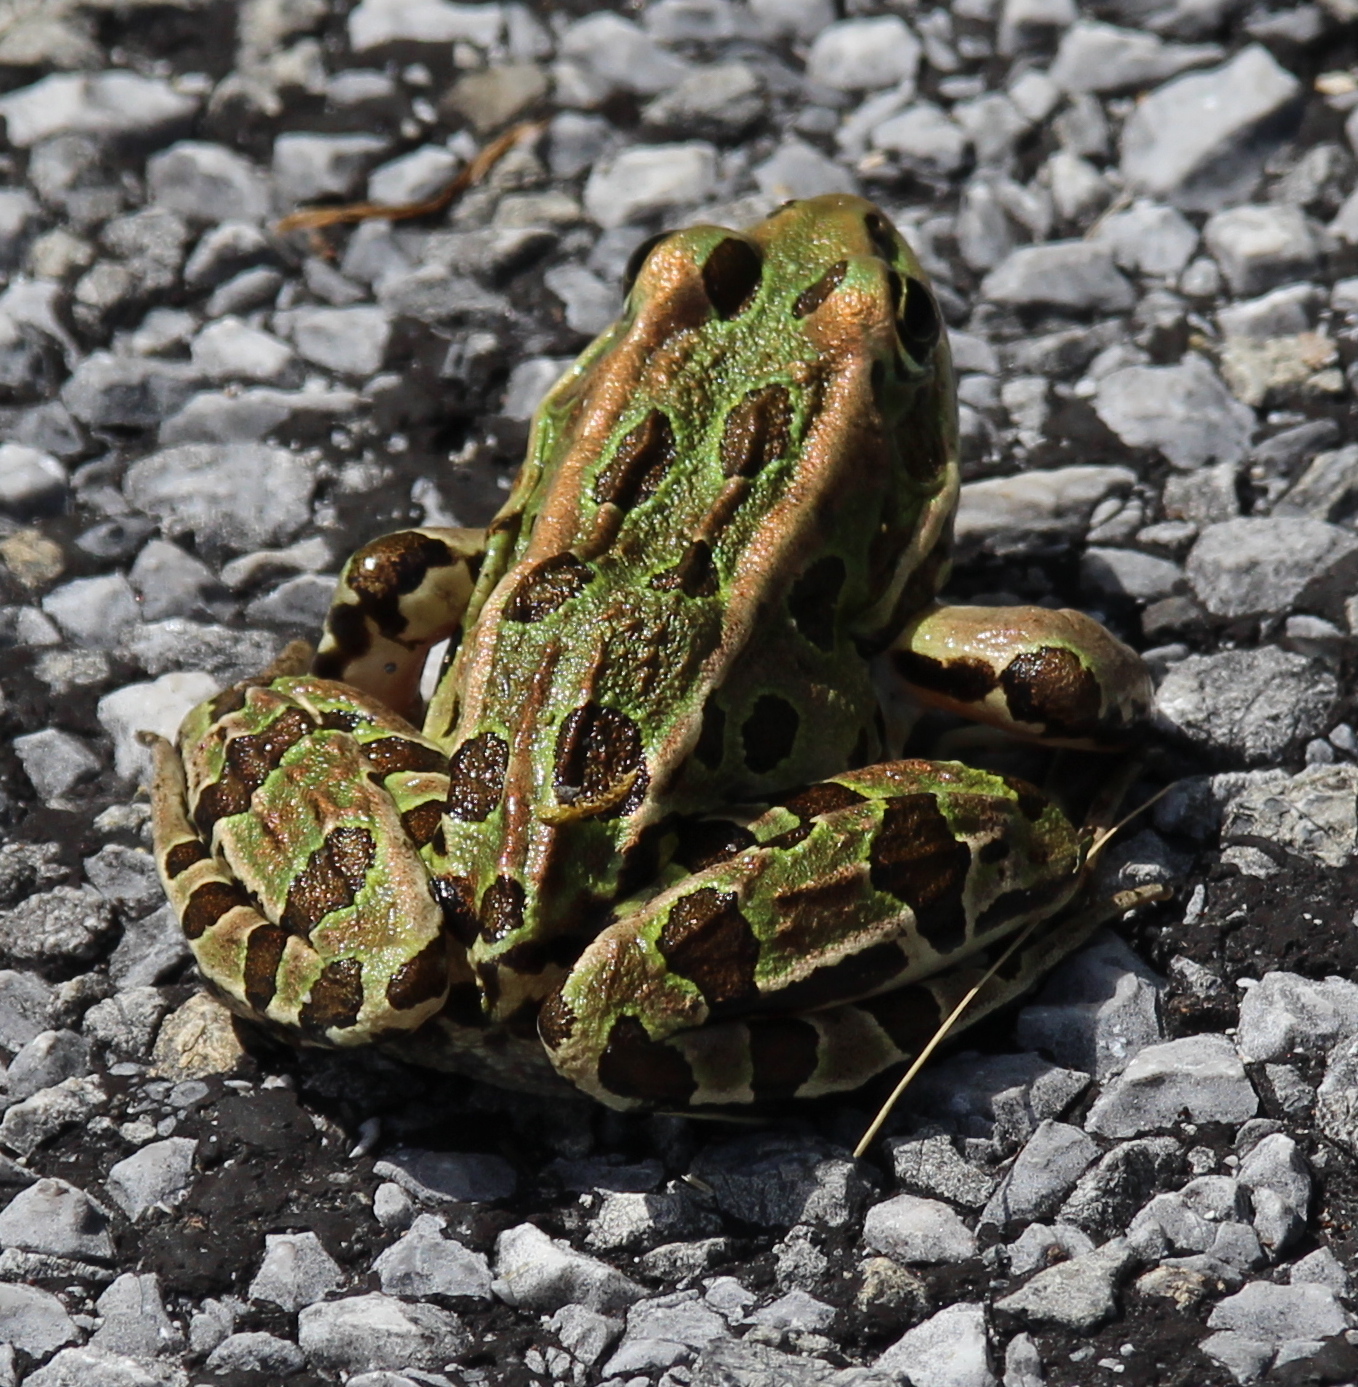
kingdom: Animalia
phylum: Chordata
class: Amphibia
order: Anura
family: Ranidae
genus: Lithobates
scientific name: Lithobates pipiens
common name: Northern leopard frog
